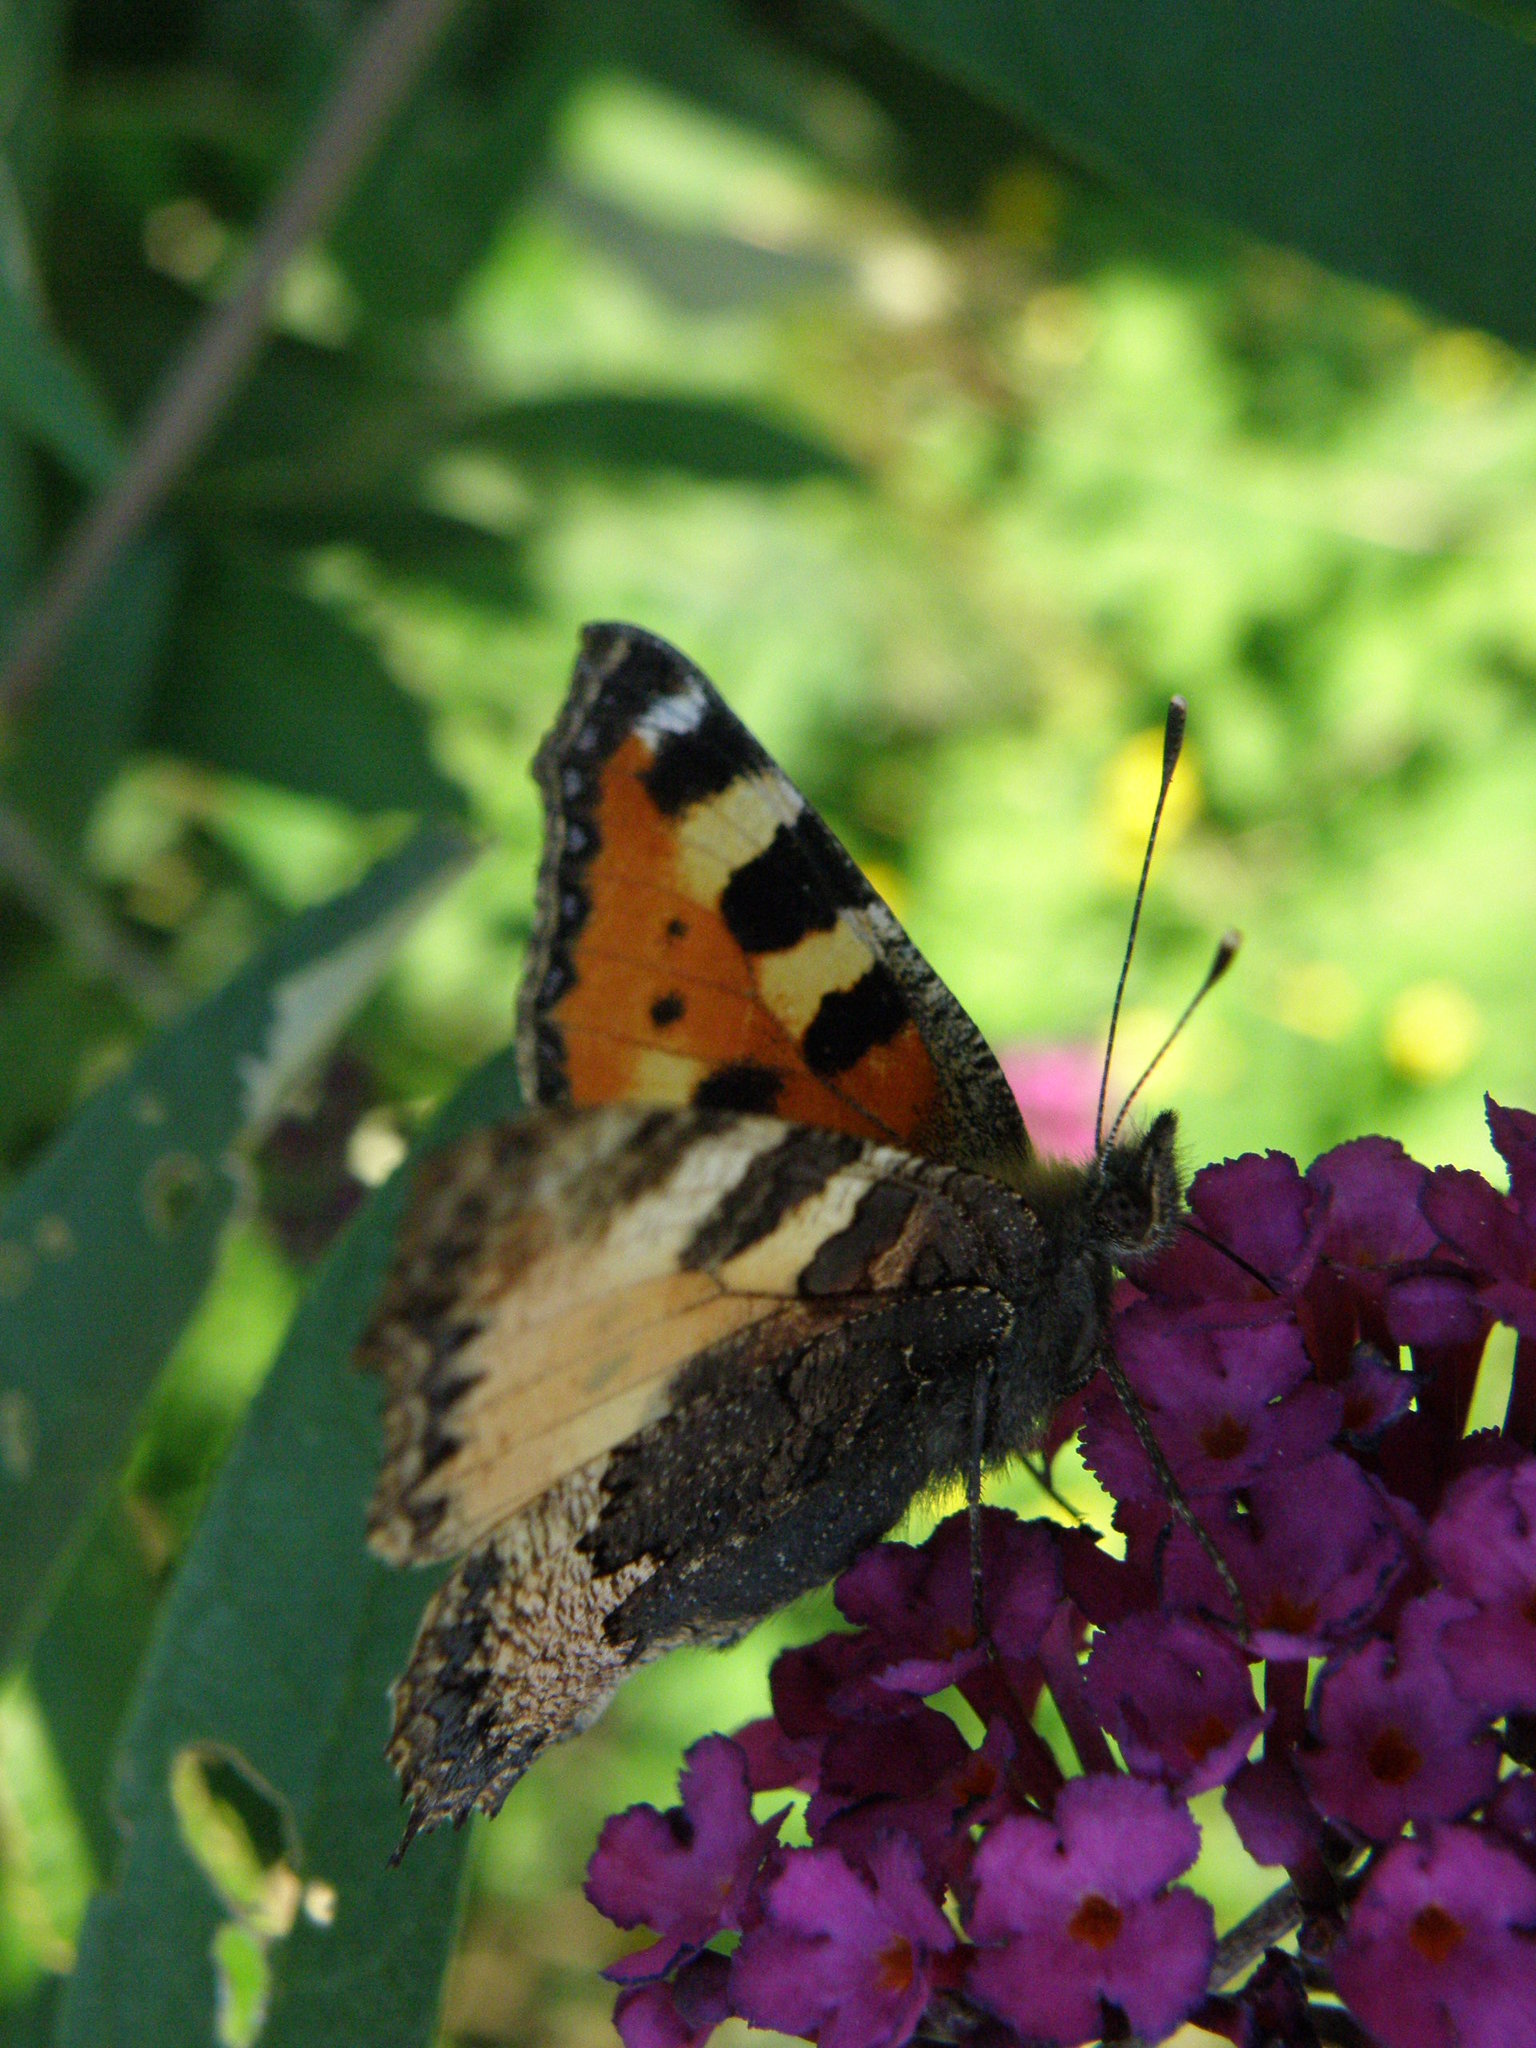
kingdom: Animalia
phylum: Arthropoda
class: Insecta
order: Lepidoptera
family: Nymphalidae
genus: Aglais
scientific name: Aglais urticae
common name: Small tortoiseshell
